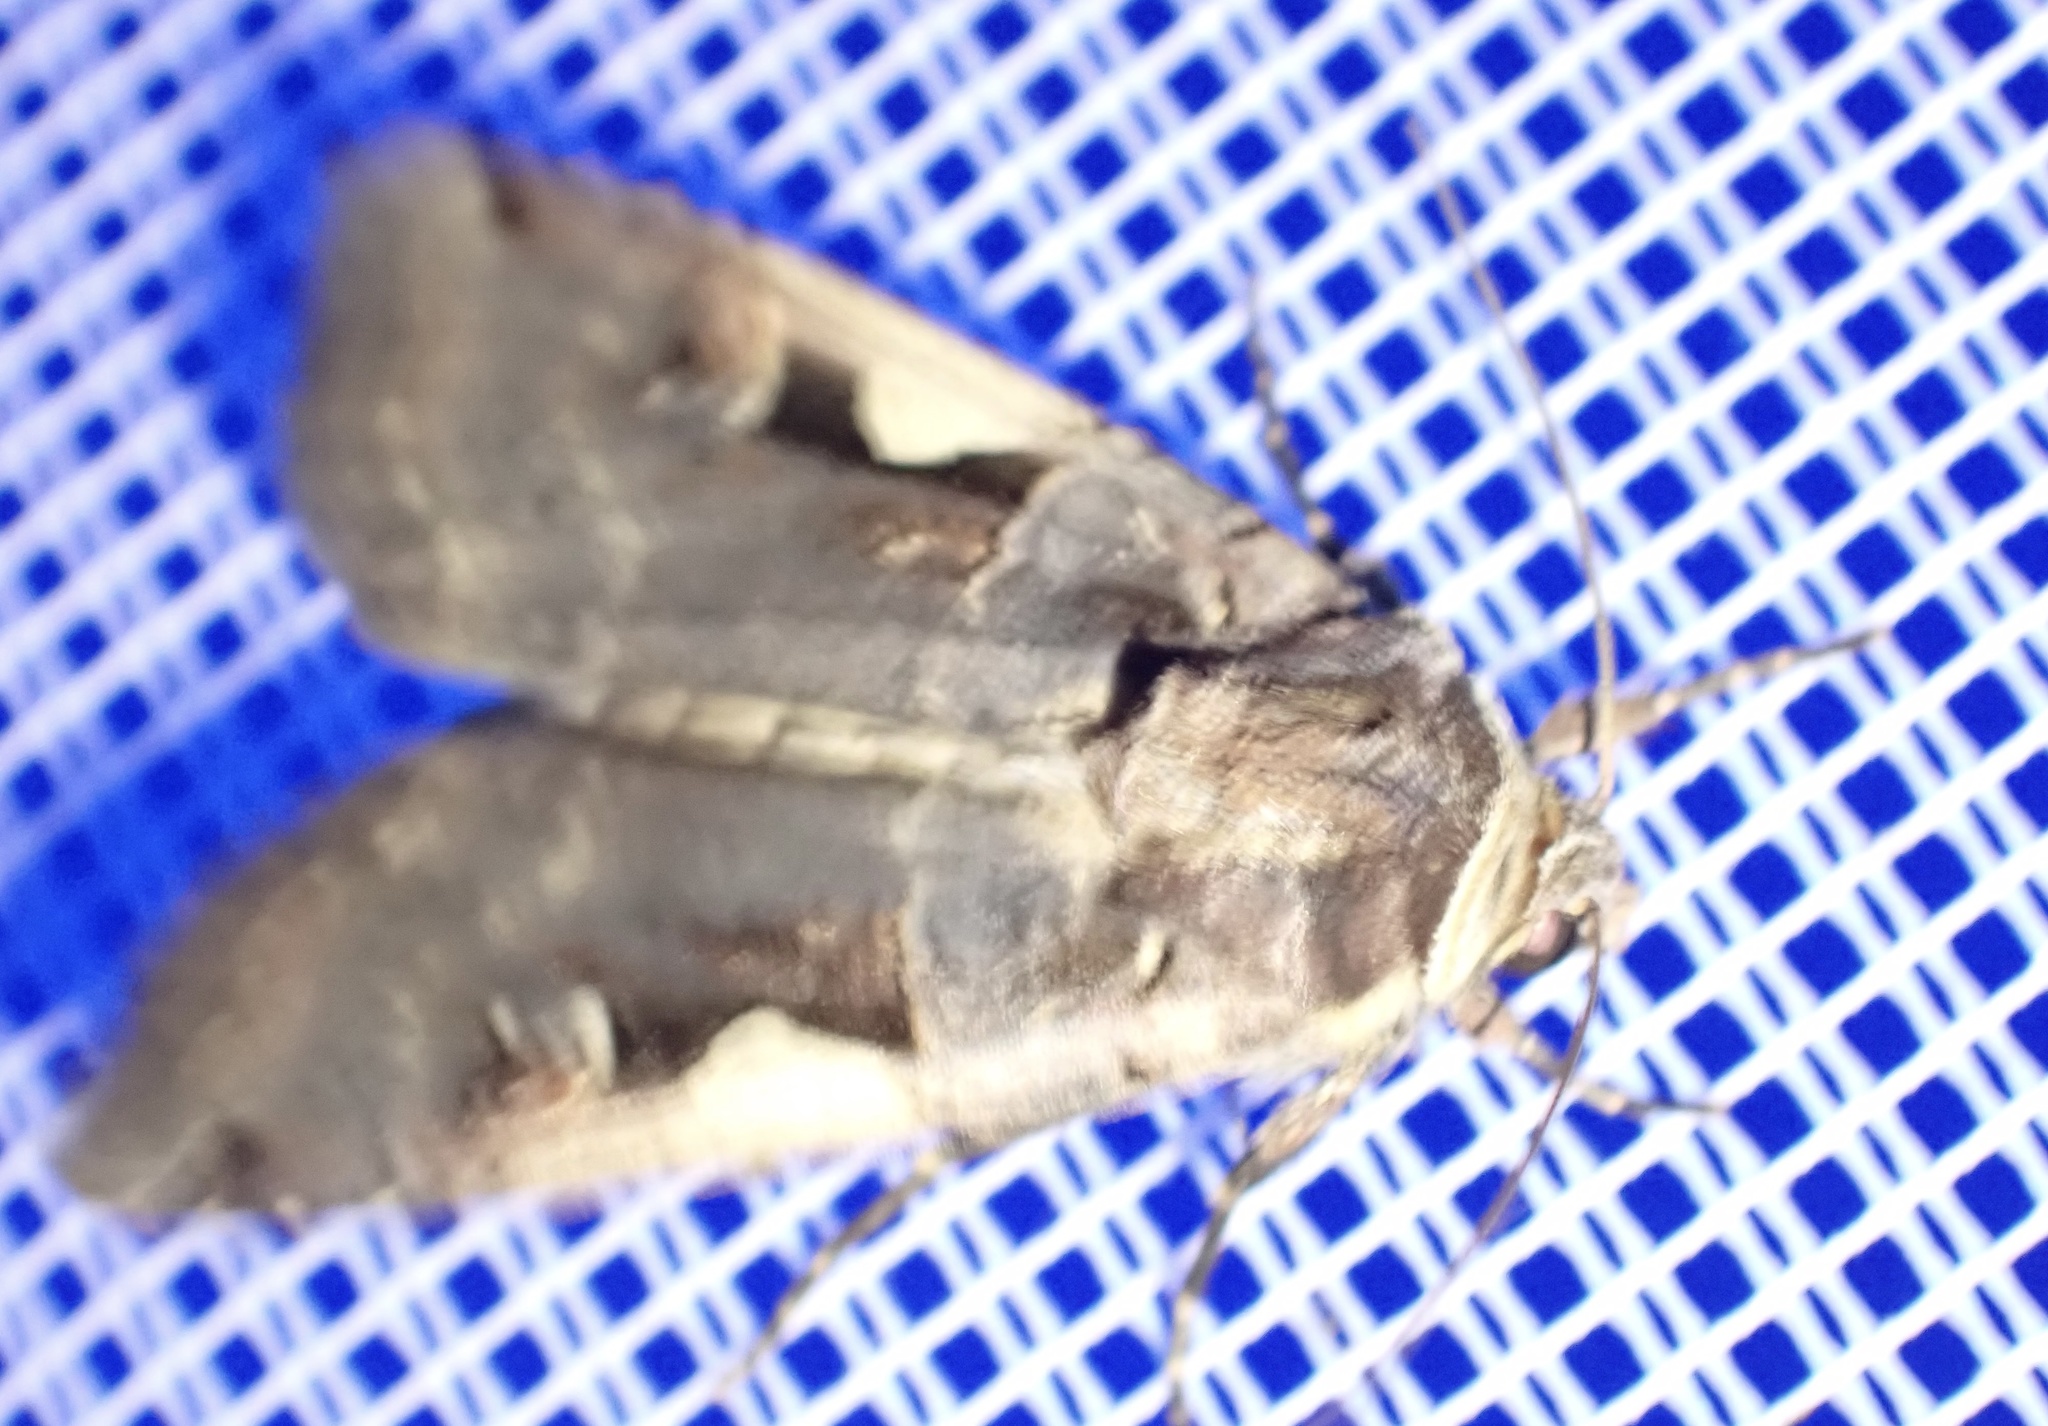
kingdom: Animalia
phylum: Arthropoda
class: Insecta
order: Lepidoptera
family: Noctuidae
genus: Xestia
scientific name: Xestia c-nigrum
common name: Setaceous hebrew character
